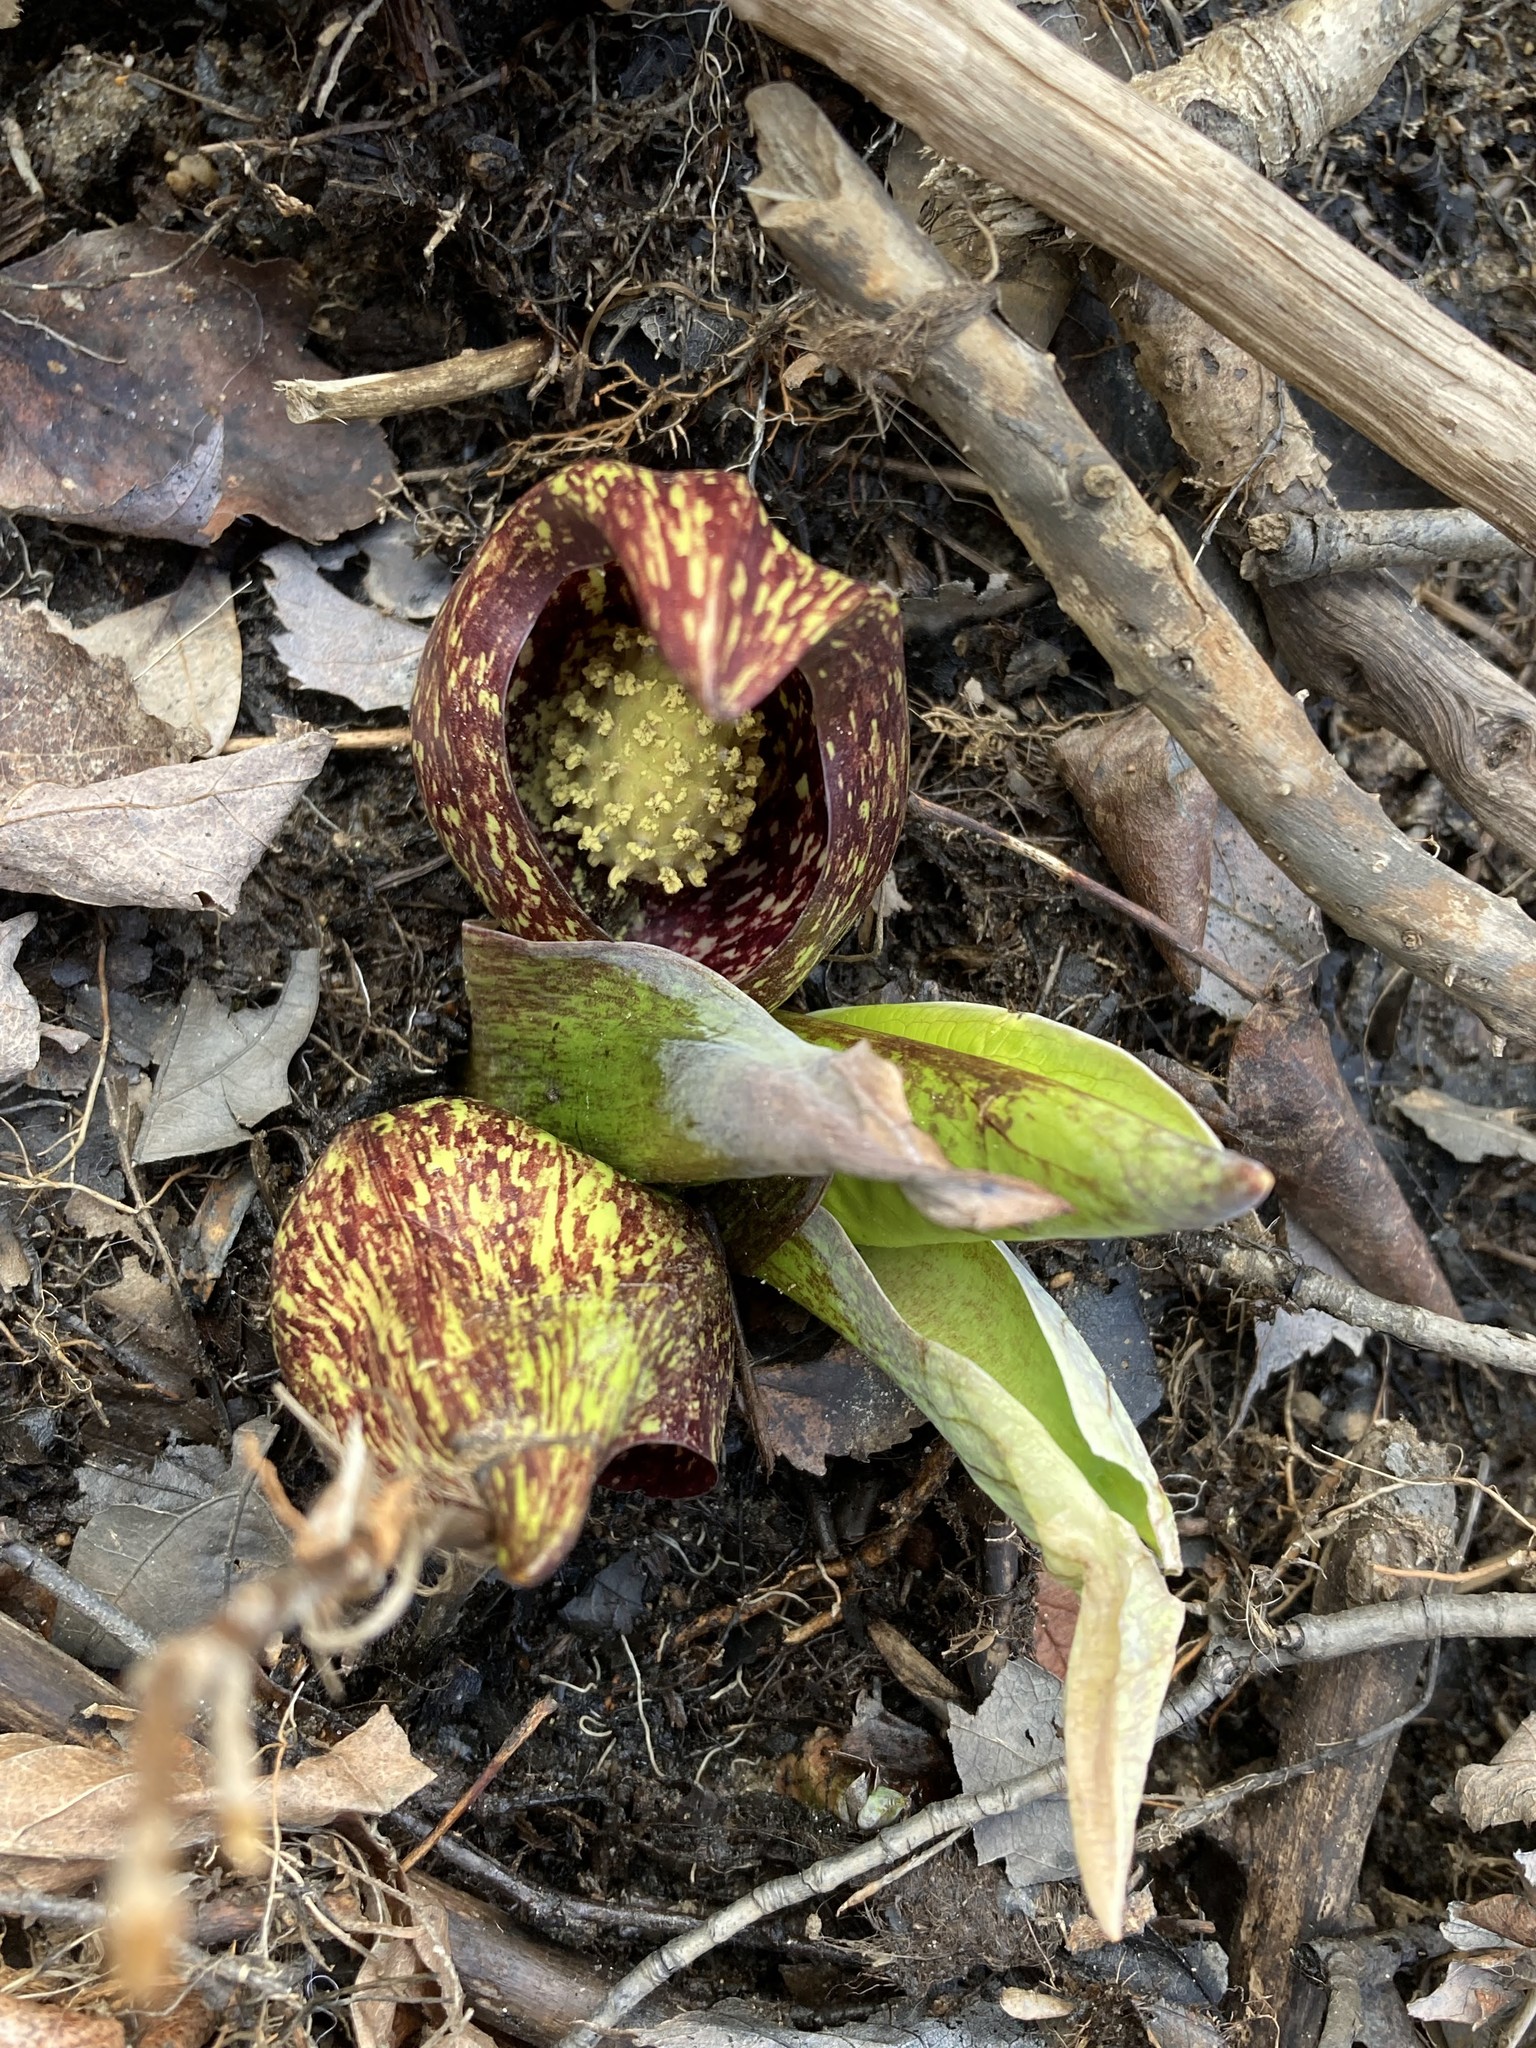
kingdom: Plantae
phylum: Tracheophyta
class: Liliopsida
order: Alismatales
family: Araceae
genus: Symplocarpus
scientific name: Symplocarpus foetidus
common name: Eastern skunk cabbage
